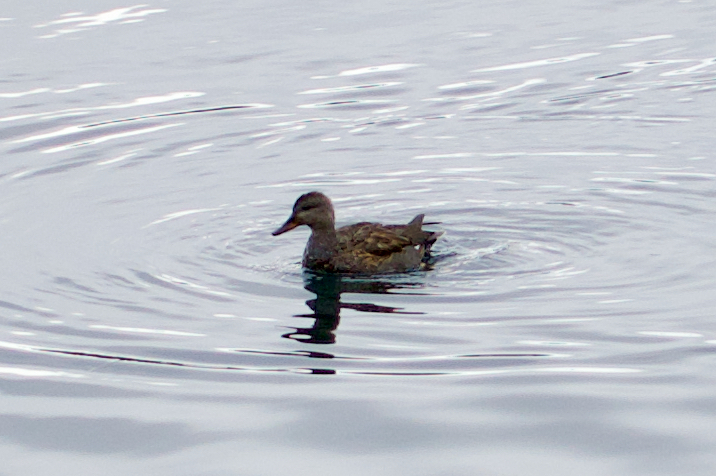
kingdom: Animalia
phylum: Chordata
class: Aves
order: Anseriformes
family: Anatidae
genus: Mareca
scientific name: Mareca strepera
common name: Gadwall
